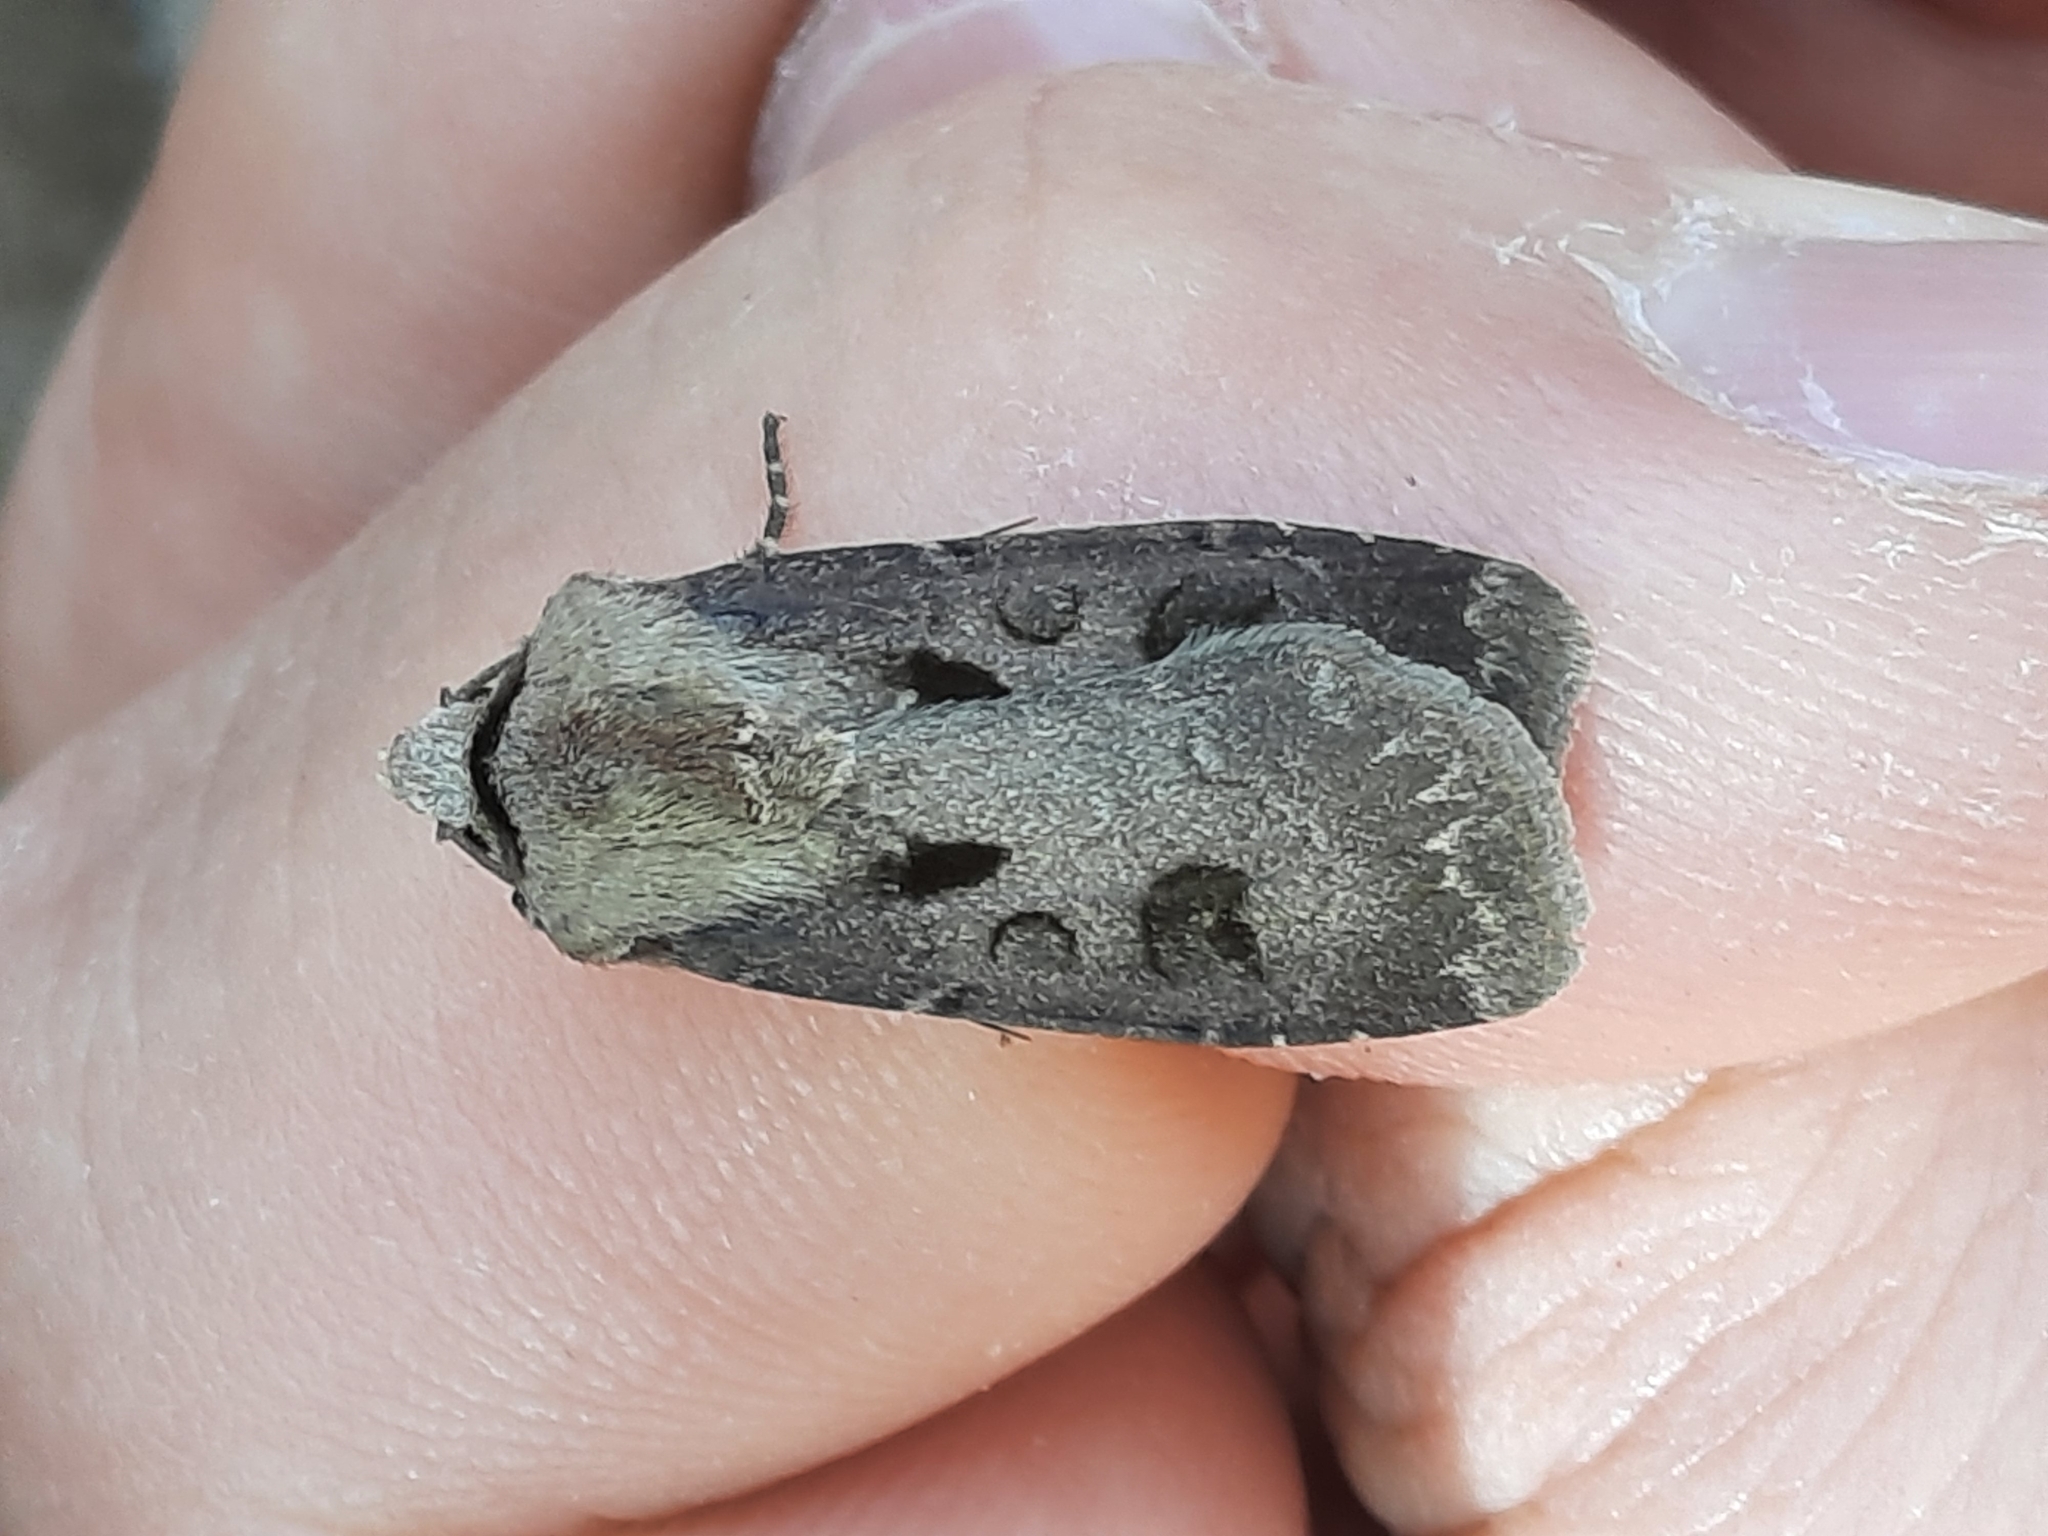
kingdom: Animalia
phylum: Arthropoda
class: Insecta
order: Lepidoptera
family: Noctuidae
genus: Agrotis
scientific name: Agrotis exclamationis
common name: Heart and dart
